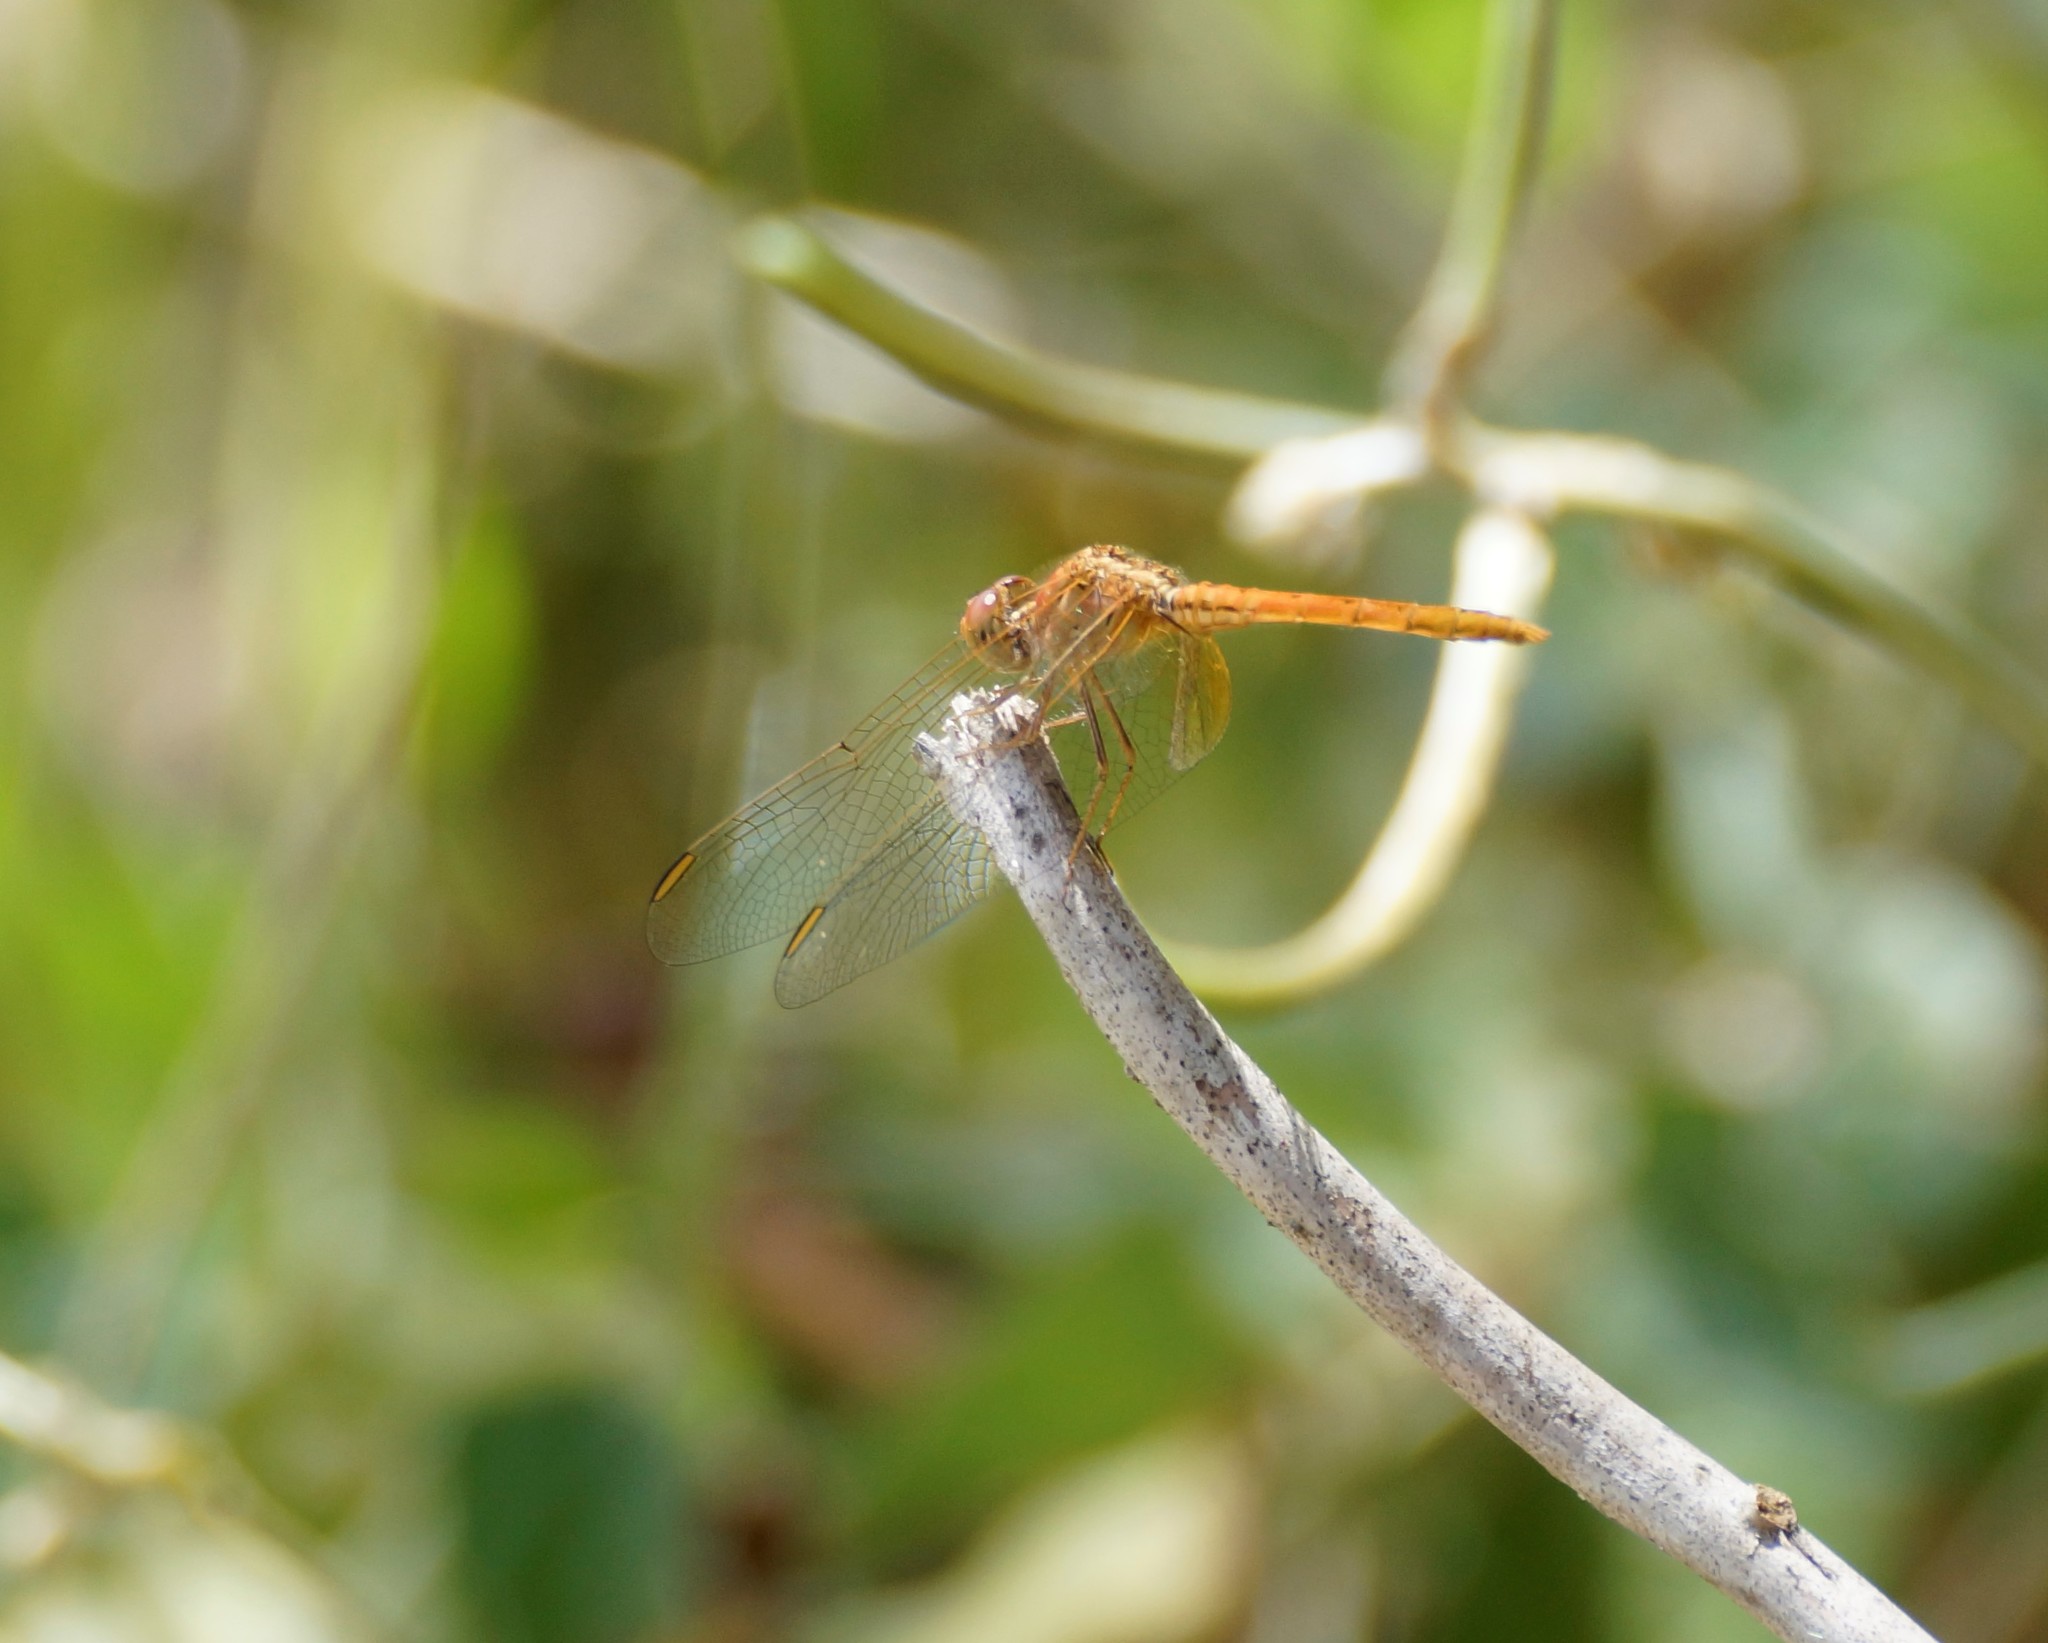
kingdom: Animalia
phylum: Arthropoda
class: Insecta
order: Odonata
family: Libellulidae
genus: Diplacodes
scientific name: Diplacodes haematodes
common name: Scarlet percher
